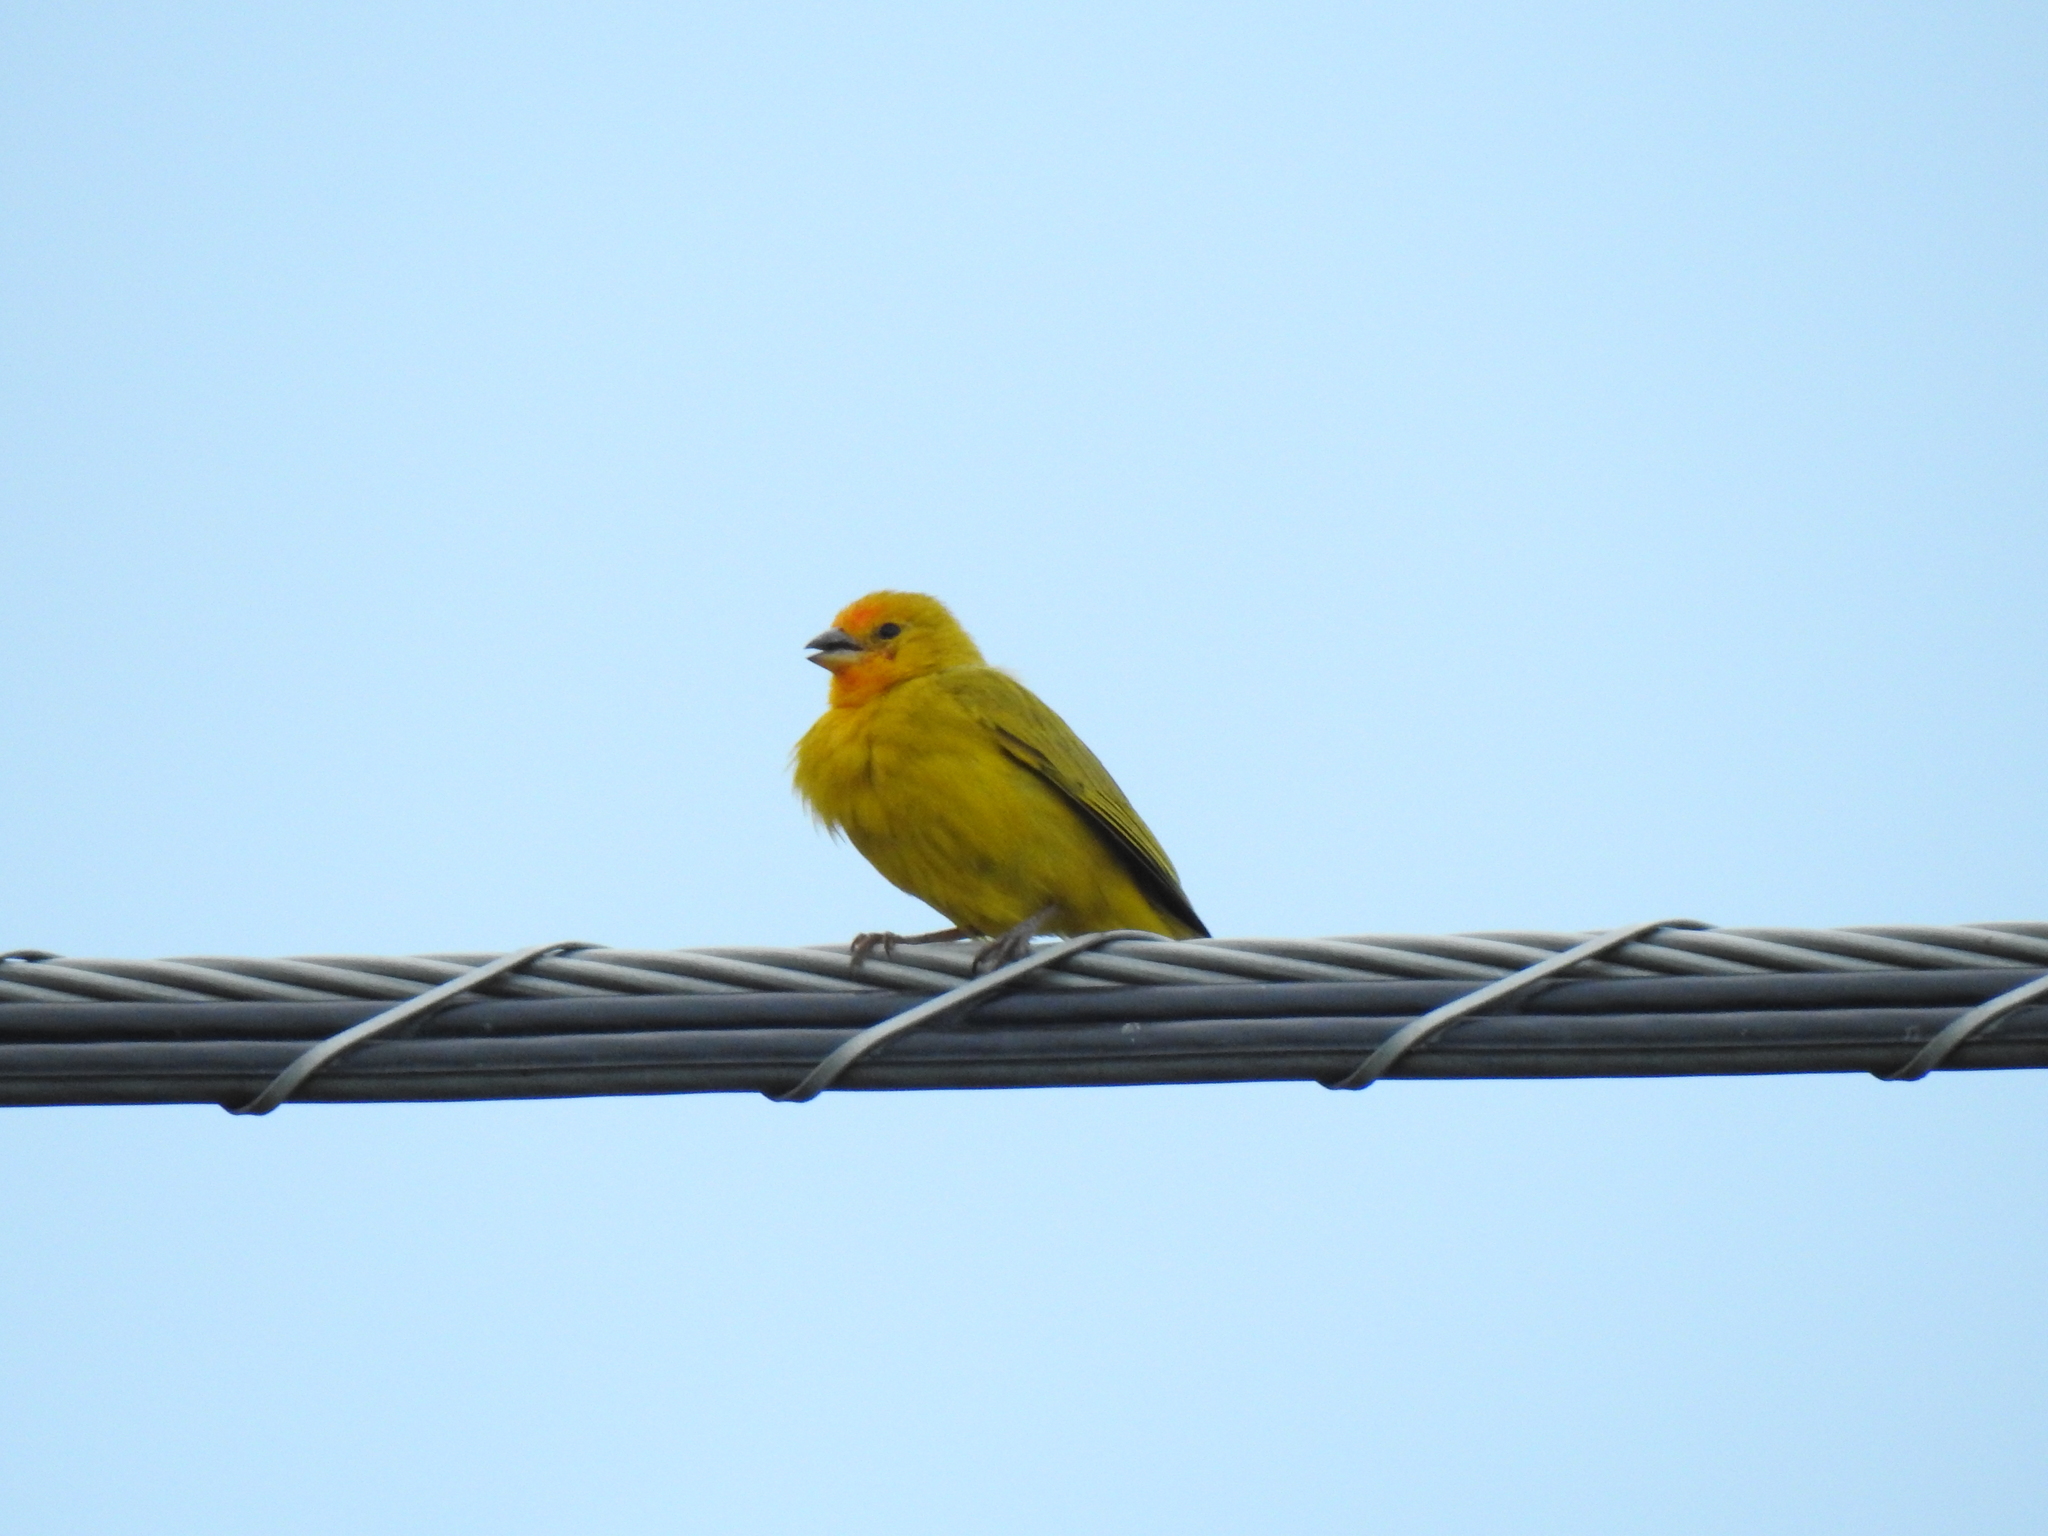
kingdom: Animalia
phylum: Chordata
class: Aves
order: Passeriformes
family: Thraupidae
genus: Sicalis
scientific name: Sicalis flaveola
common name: Saffron finch
